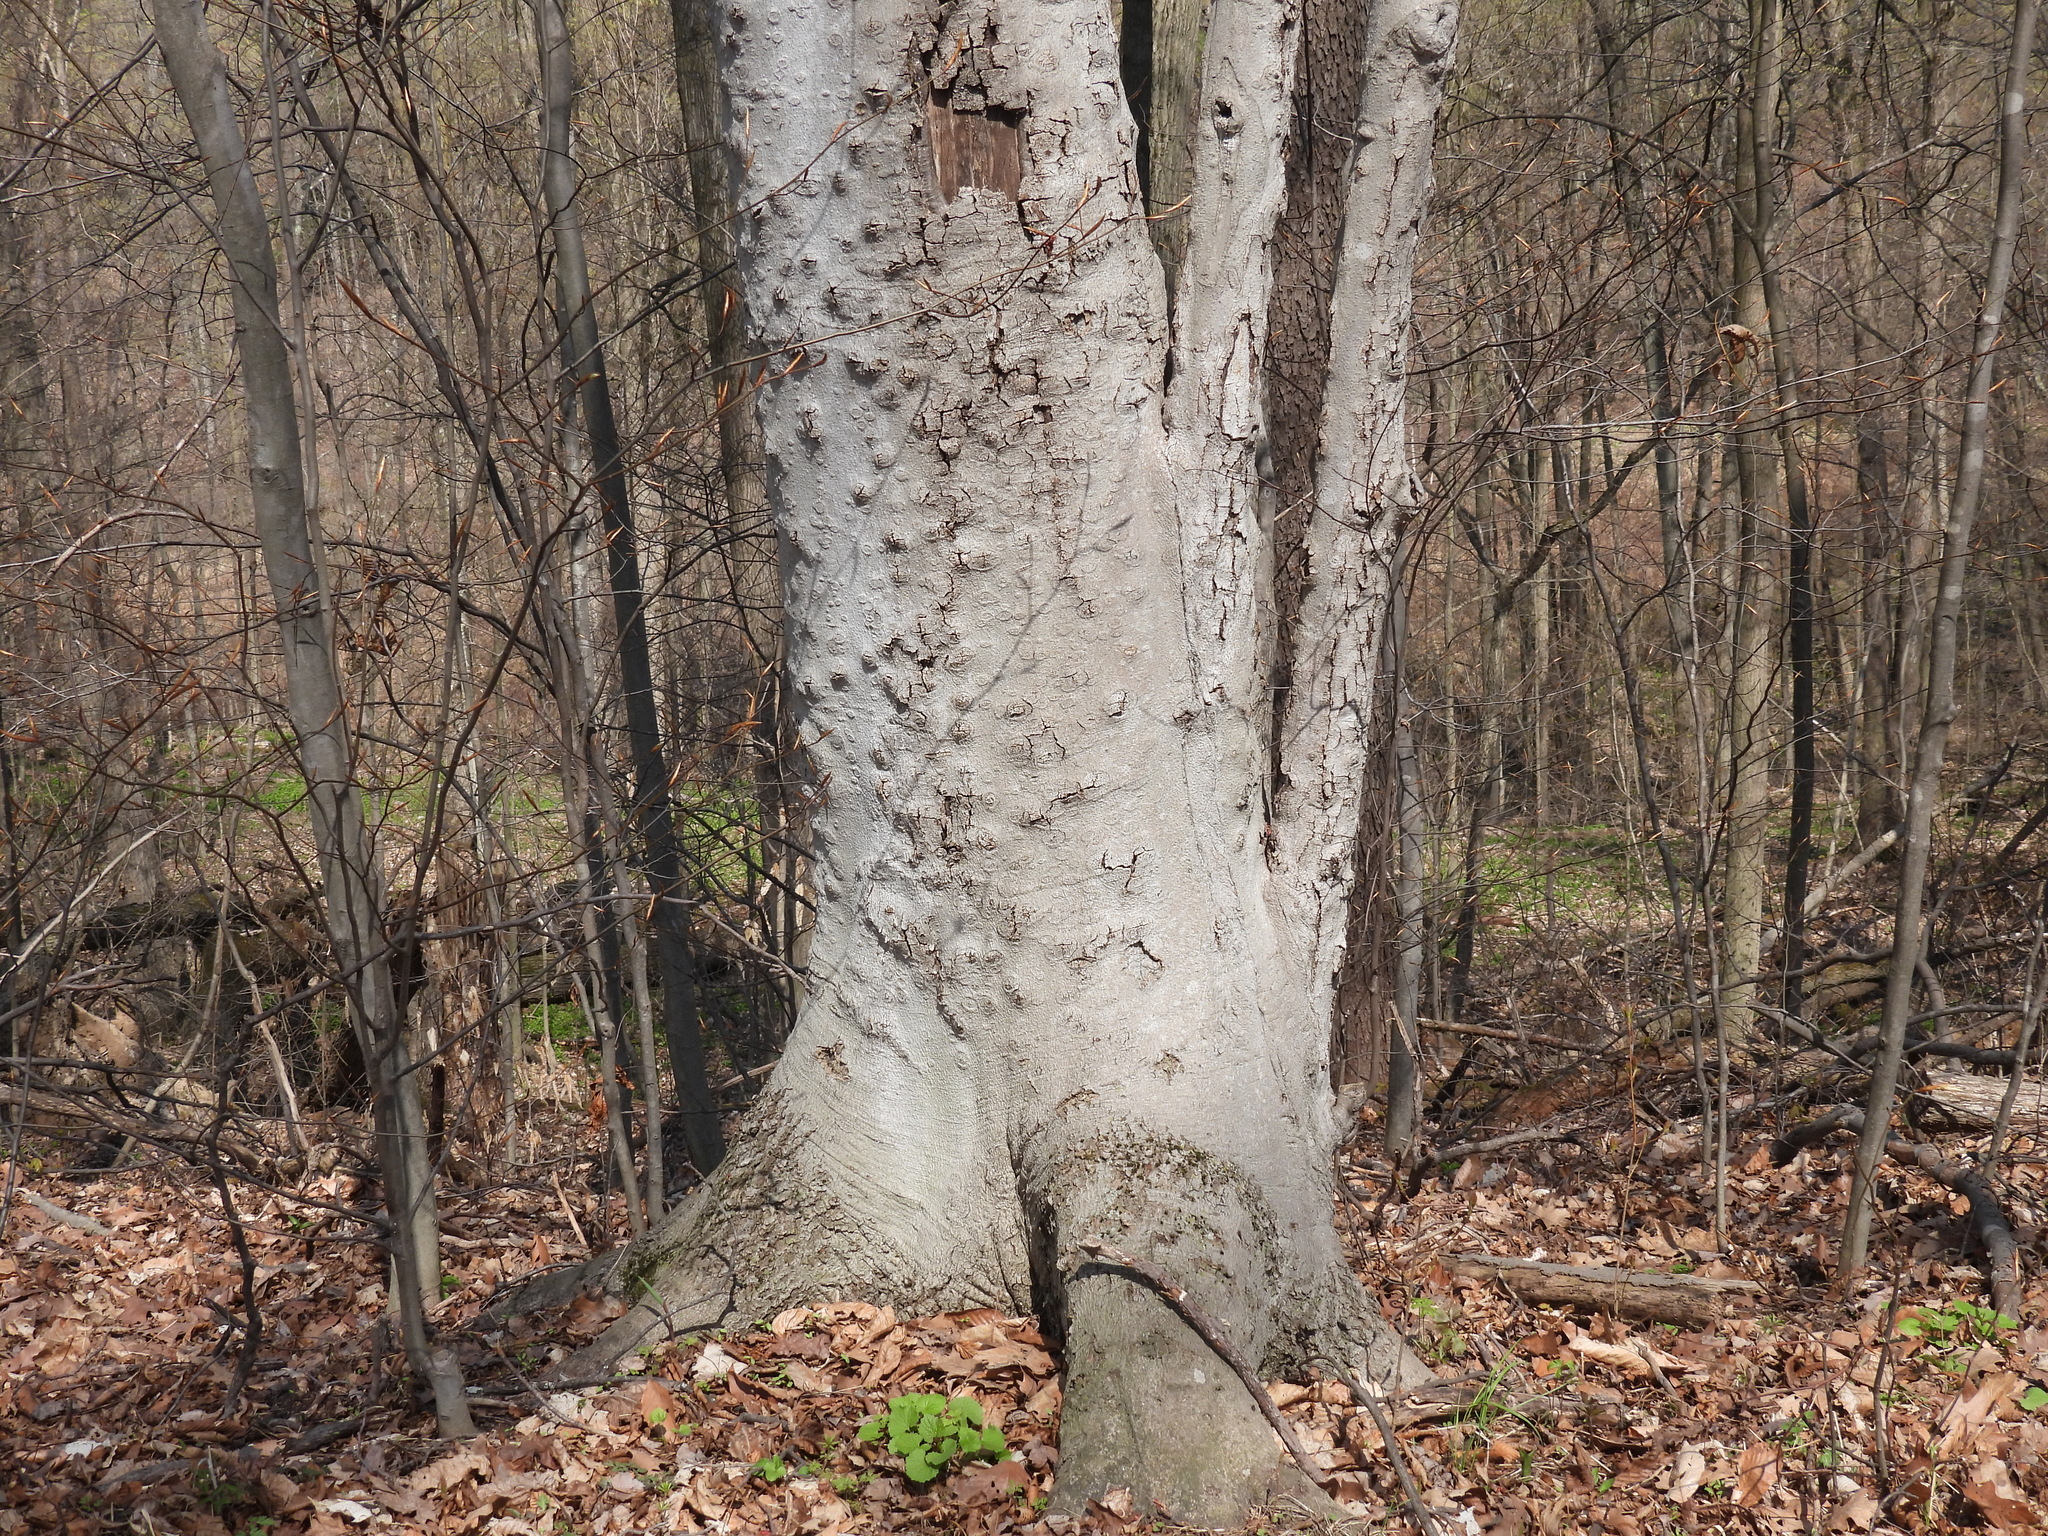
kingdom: Plantae
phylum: Tracheophyta
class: Magnoliopsida
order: Fagales
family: Fagaceae
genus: Fagus
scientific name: Fagus grandifolia
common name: American beech
